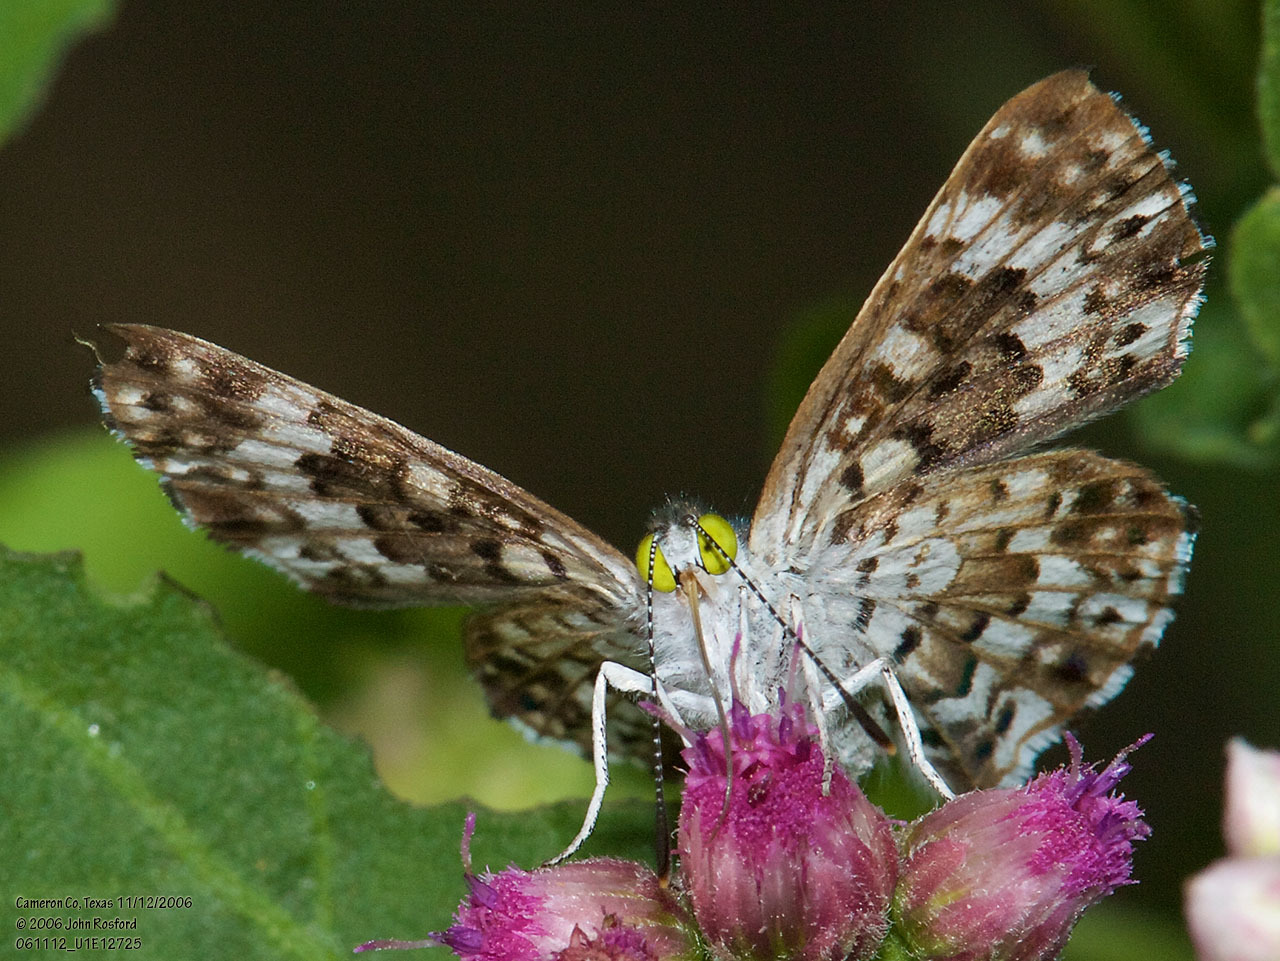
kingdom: Animalia
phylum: Arthropoda
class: Insecta
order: Lepidoptera
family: Riodinidae
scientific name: Riodinidae
